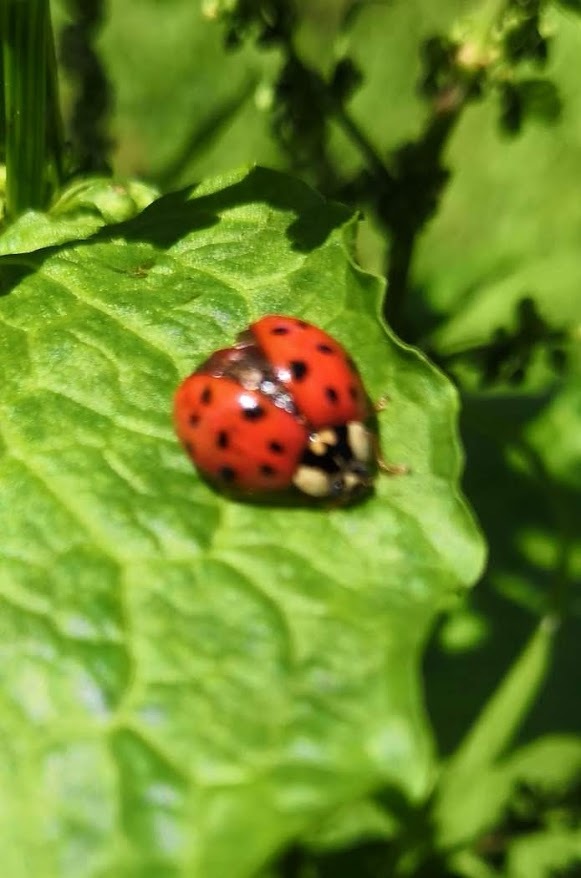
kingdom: Animalia
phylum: Arthropoda
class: Insecta
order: Coleoptera
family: Coccinellidae
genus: Harmonia
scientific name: Harmonia axyridis
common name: Harlequin ladybird
